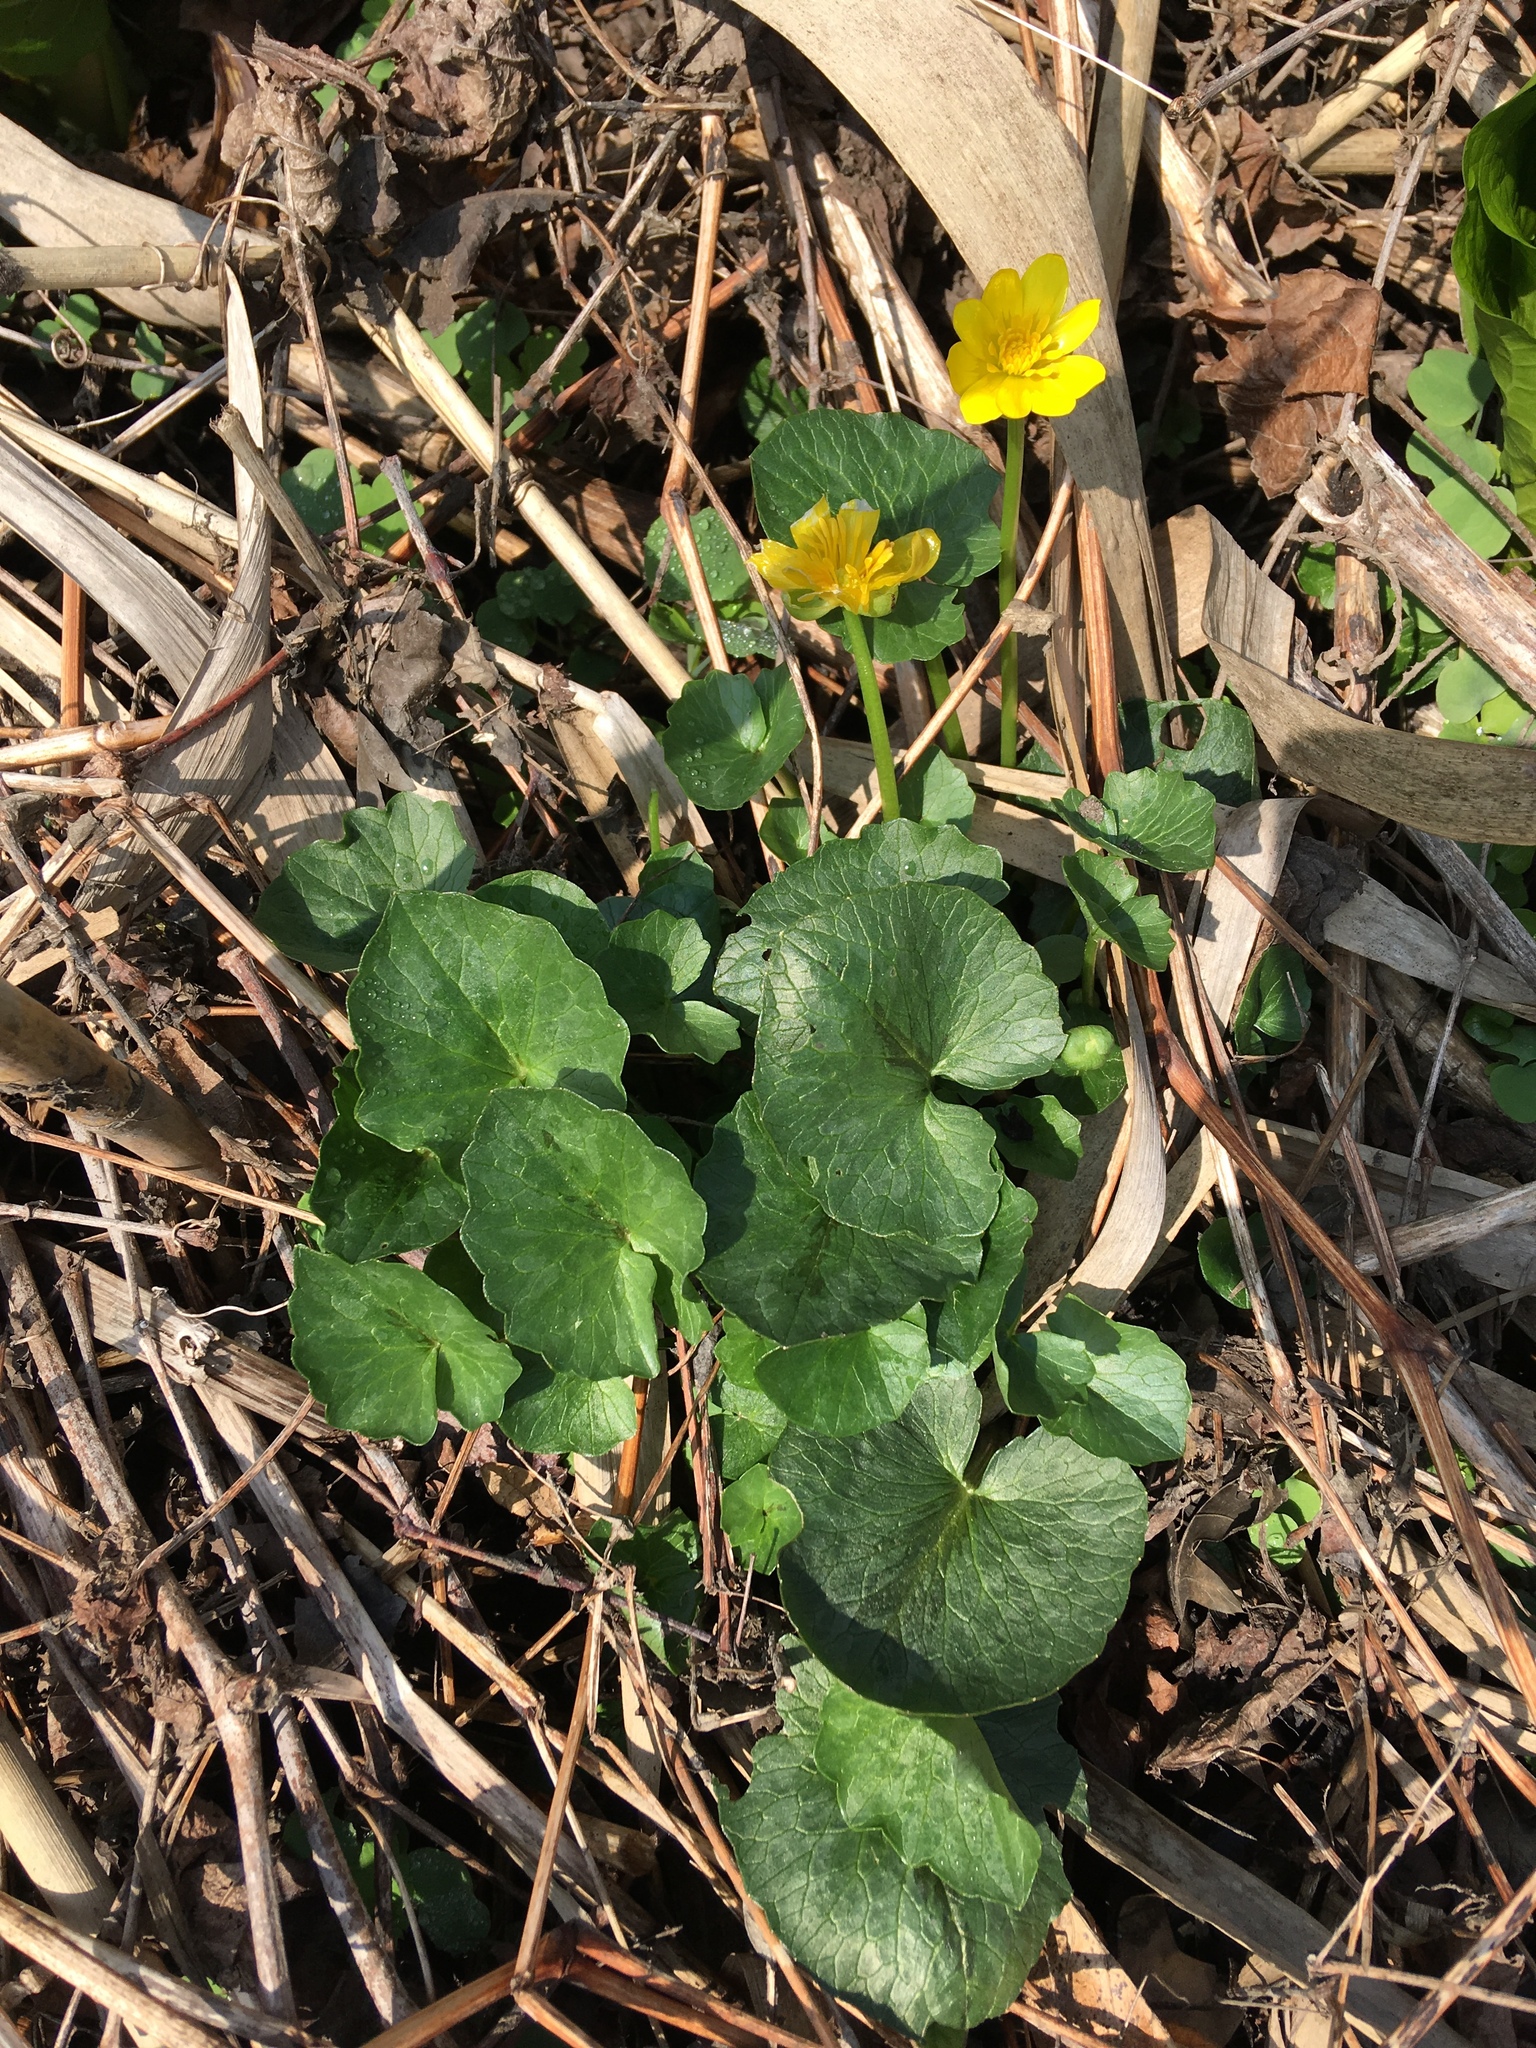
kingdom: Plantae
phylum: Tracheophyta
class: Magnoliopsida
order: Ranunculales
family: Ranunculaceae
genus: Ficaria
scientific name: Ficaria verna
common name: Lesser celandine
